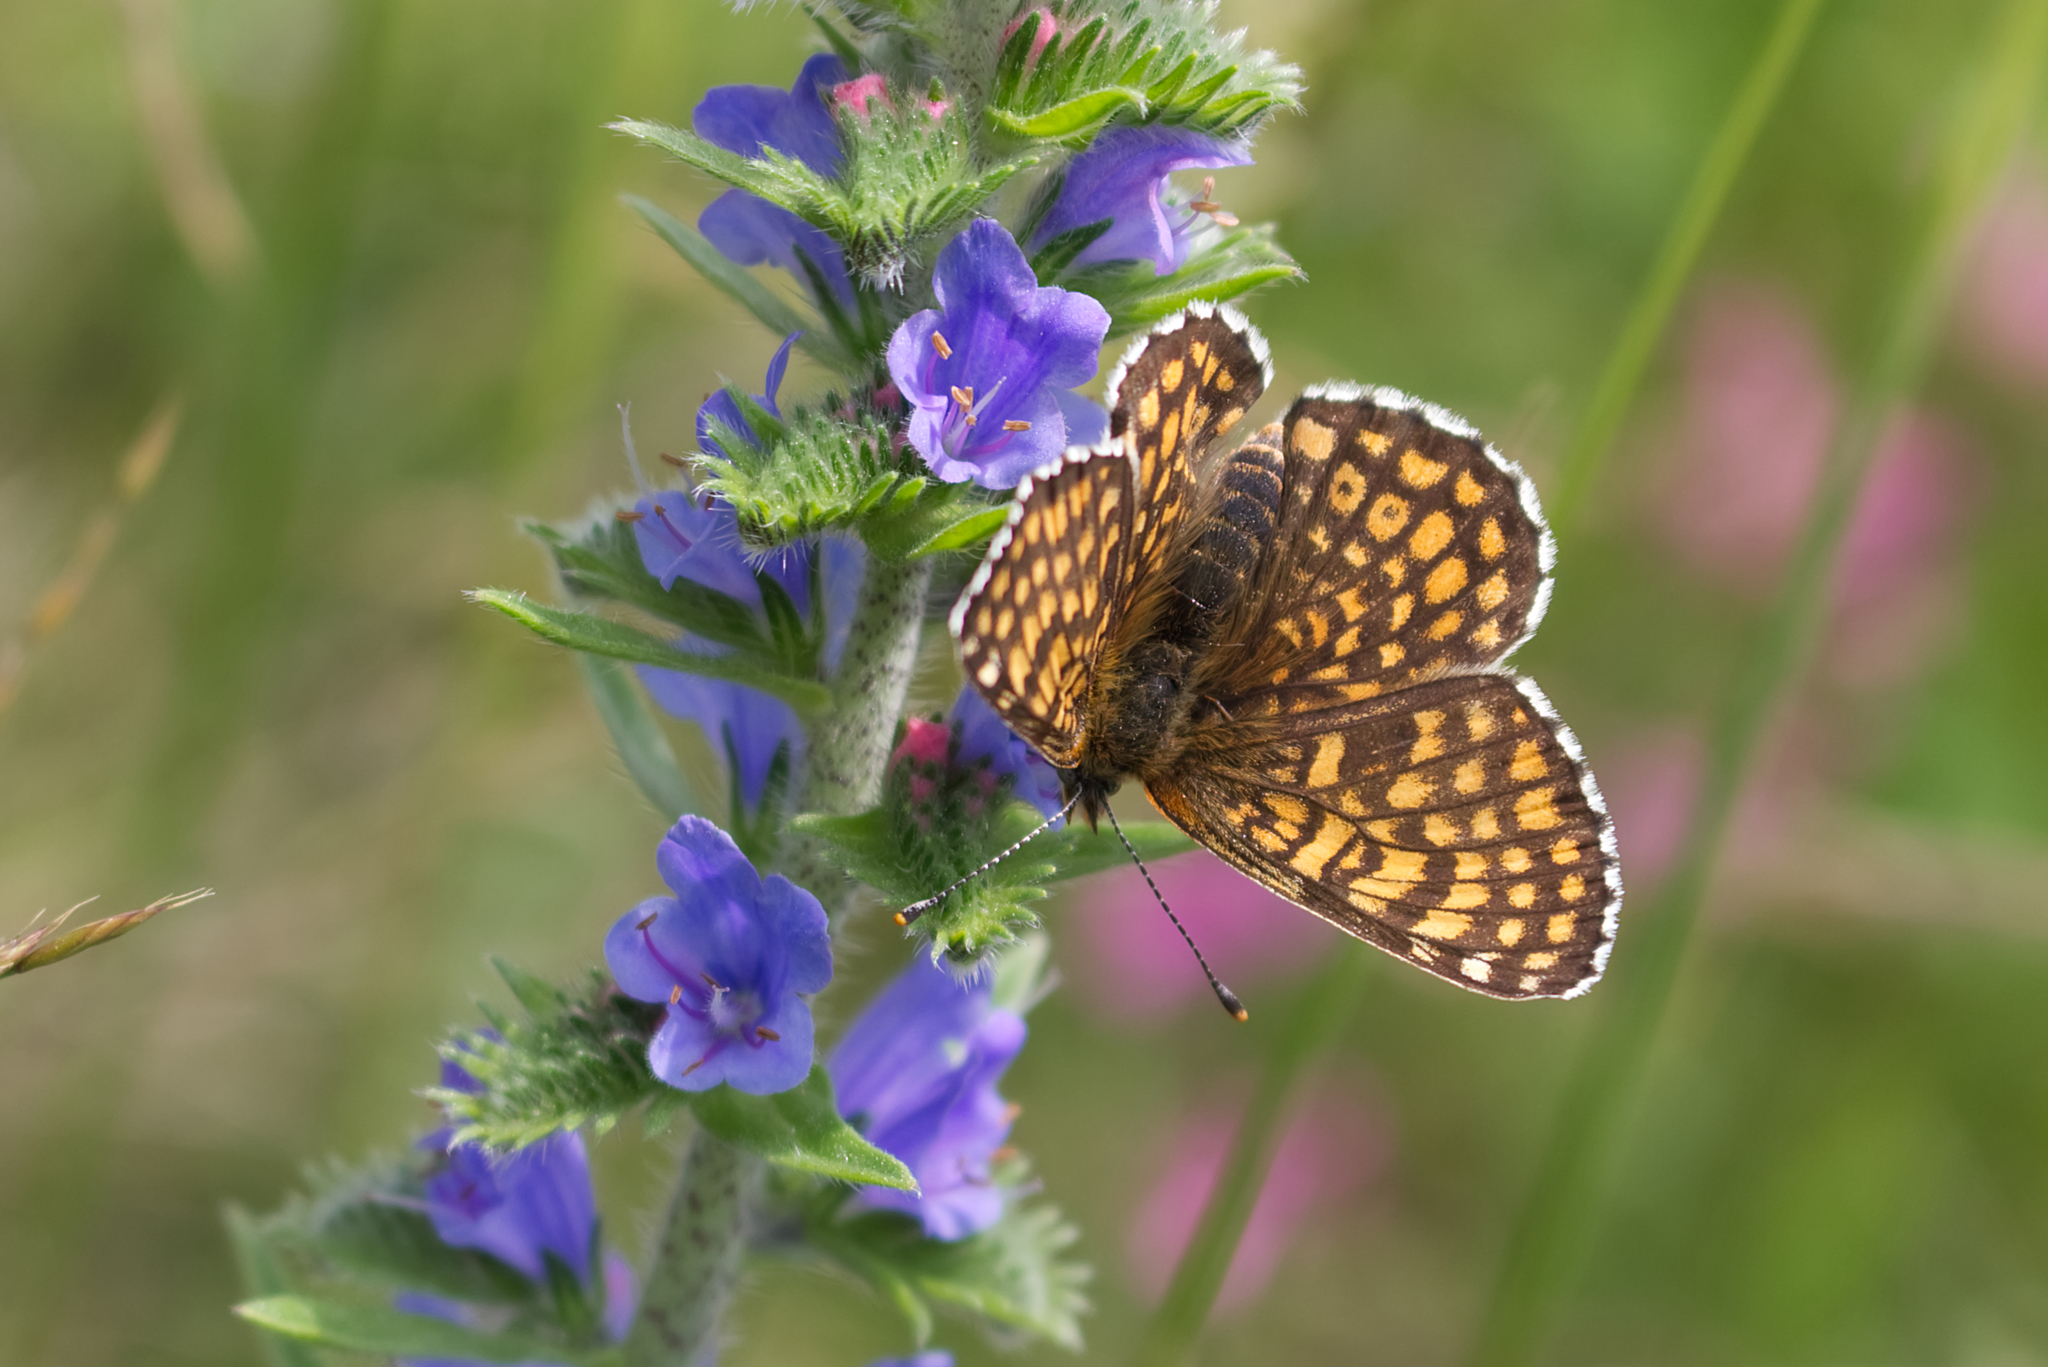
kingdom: Animalia
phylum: Arthropoda
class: Insecta
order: Lepidoptera
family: Nymphalidae
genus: Melitaea
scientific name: Melitaea cinxia
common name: Glanville fritillary
